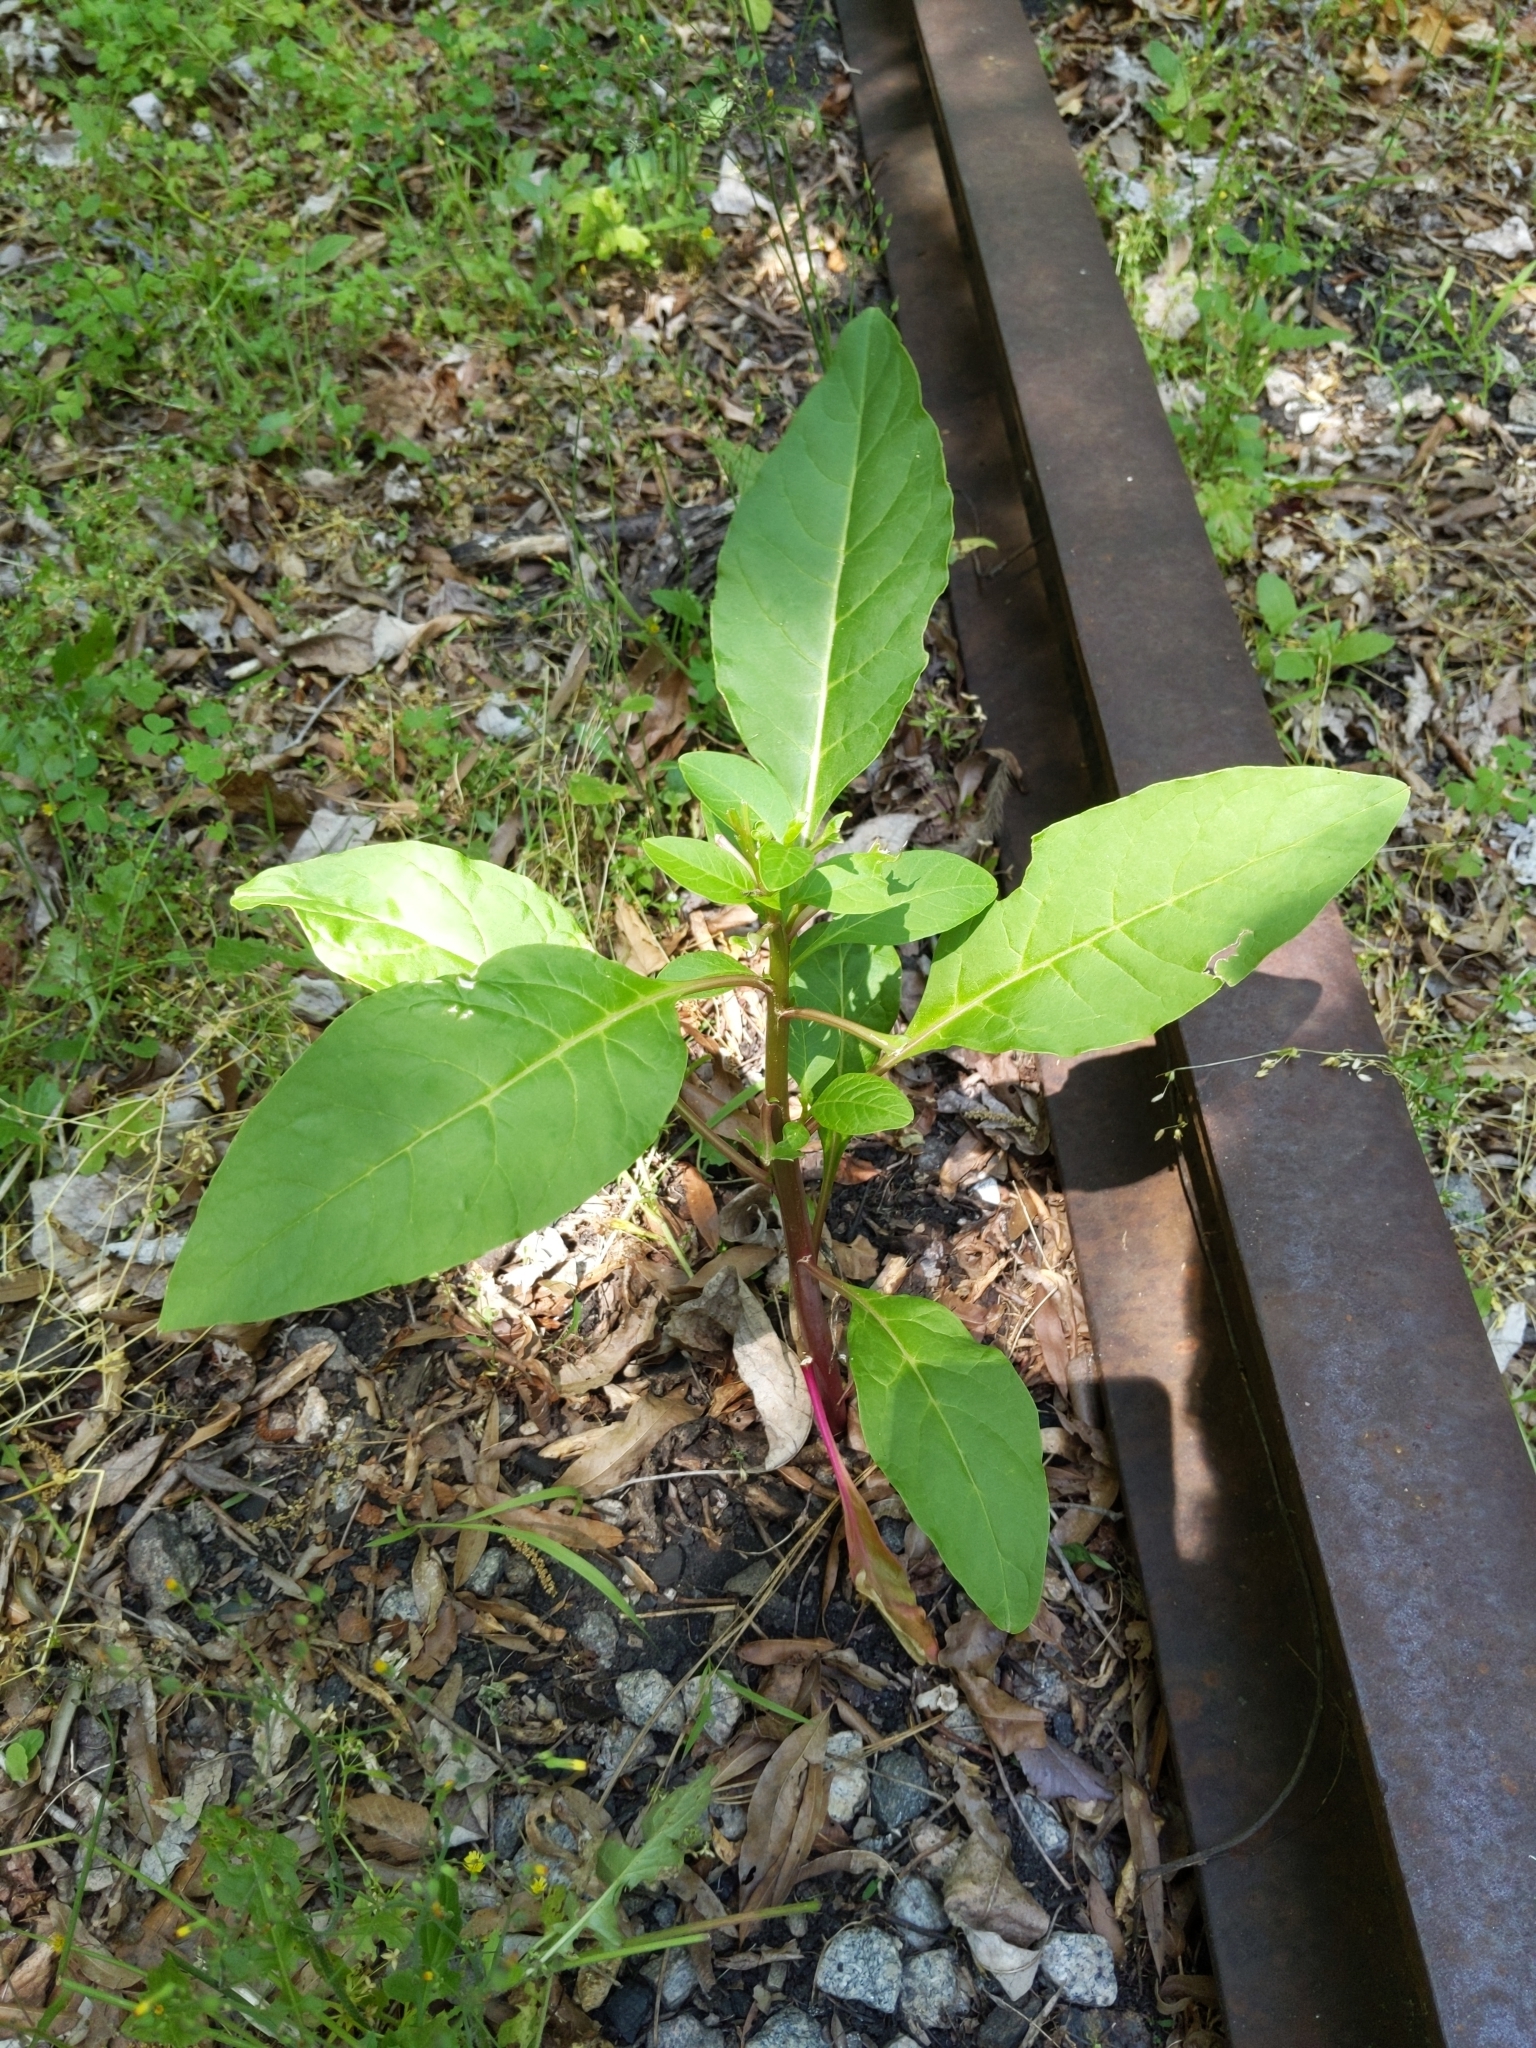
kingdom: Plantae
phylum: Tracheophyta
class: Magnoliopsida
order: Caryophyllales
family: Phytolaccaceae
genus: Phytolacca
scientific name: Phytolacca americana
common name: American pokeweed
